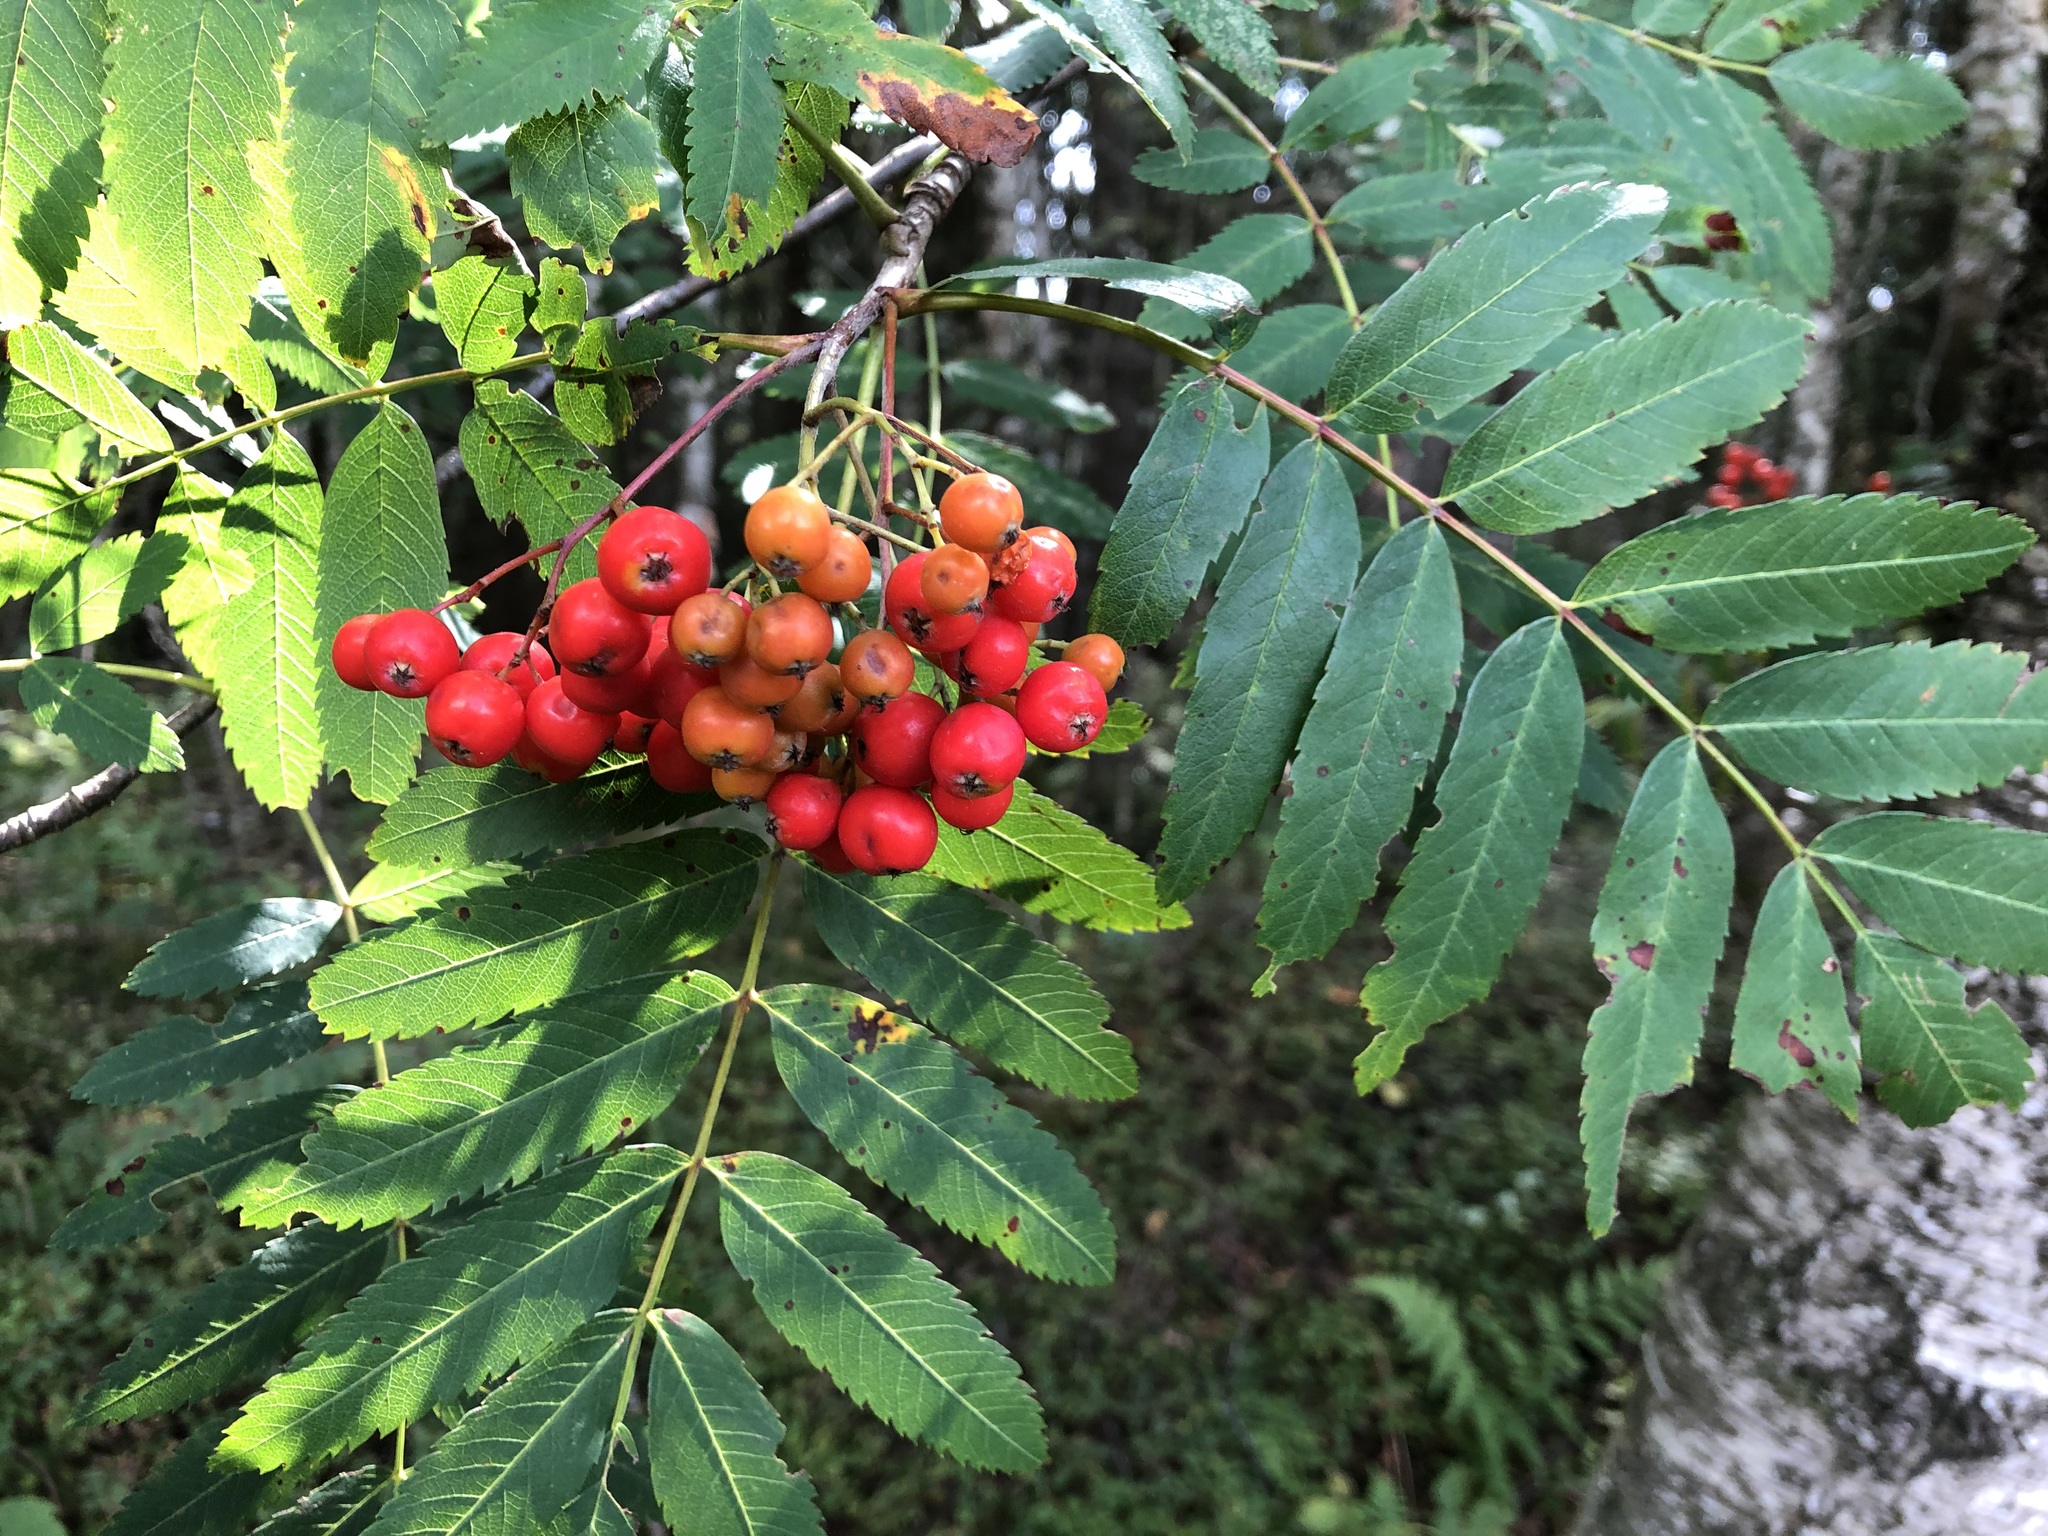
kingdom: Plantae
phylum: Tracheophyta
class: Magnoliopsida
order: Rosales
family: Rosaceae
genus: Sorbus
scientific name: Sorbus aucuparia
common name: Rowan
